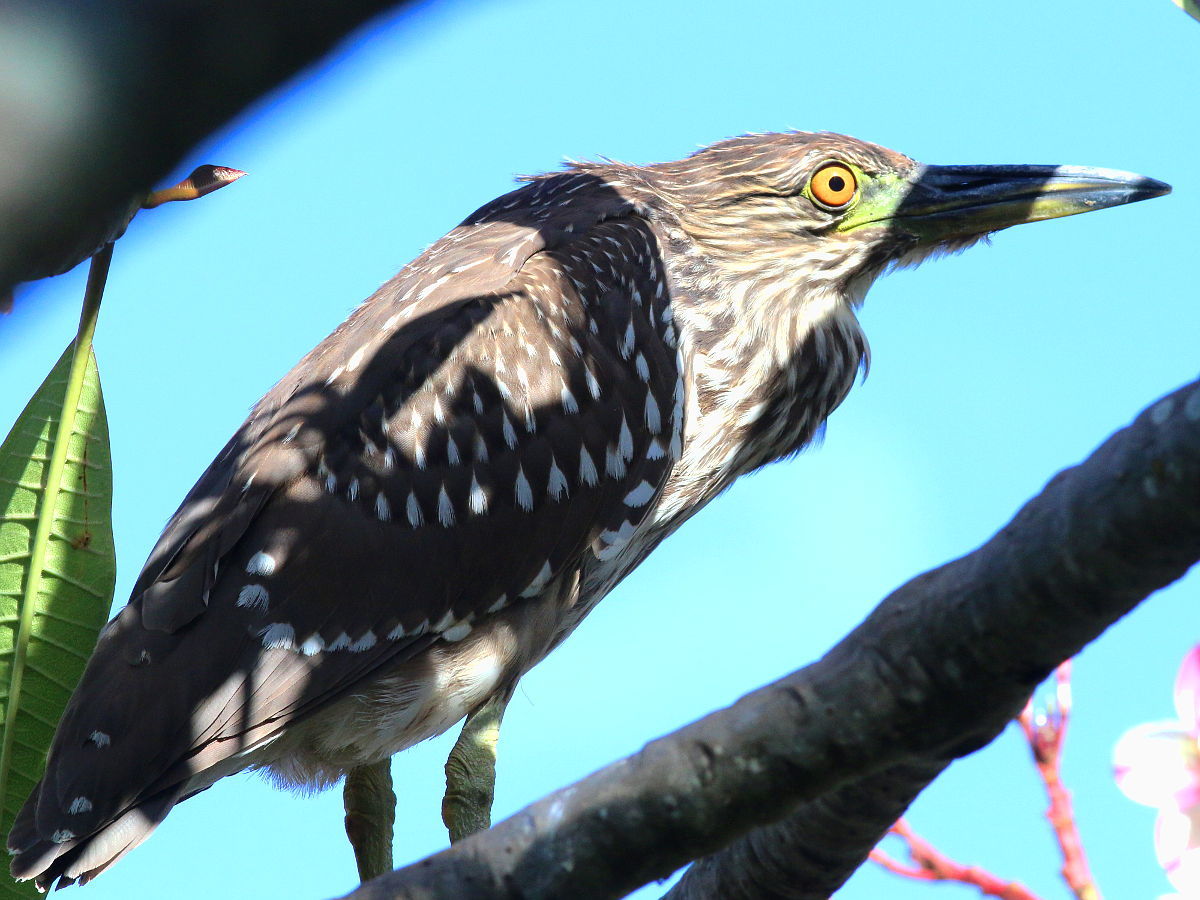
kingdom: Animalia
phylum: Chordata
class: Aves
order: Pelecaniformes
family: Ardeidae
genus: Nycticorax
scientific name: Nycticorax nycticorax
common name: Black-crowned night heron
